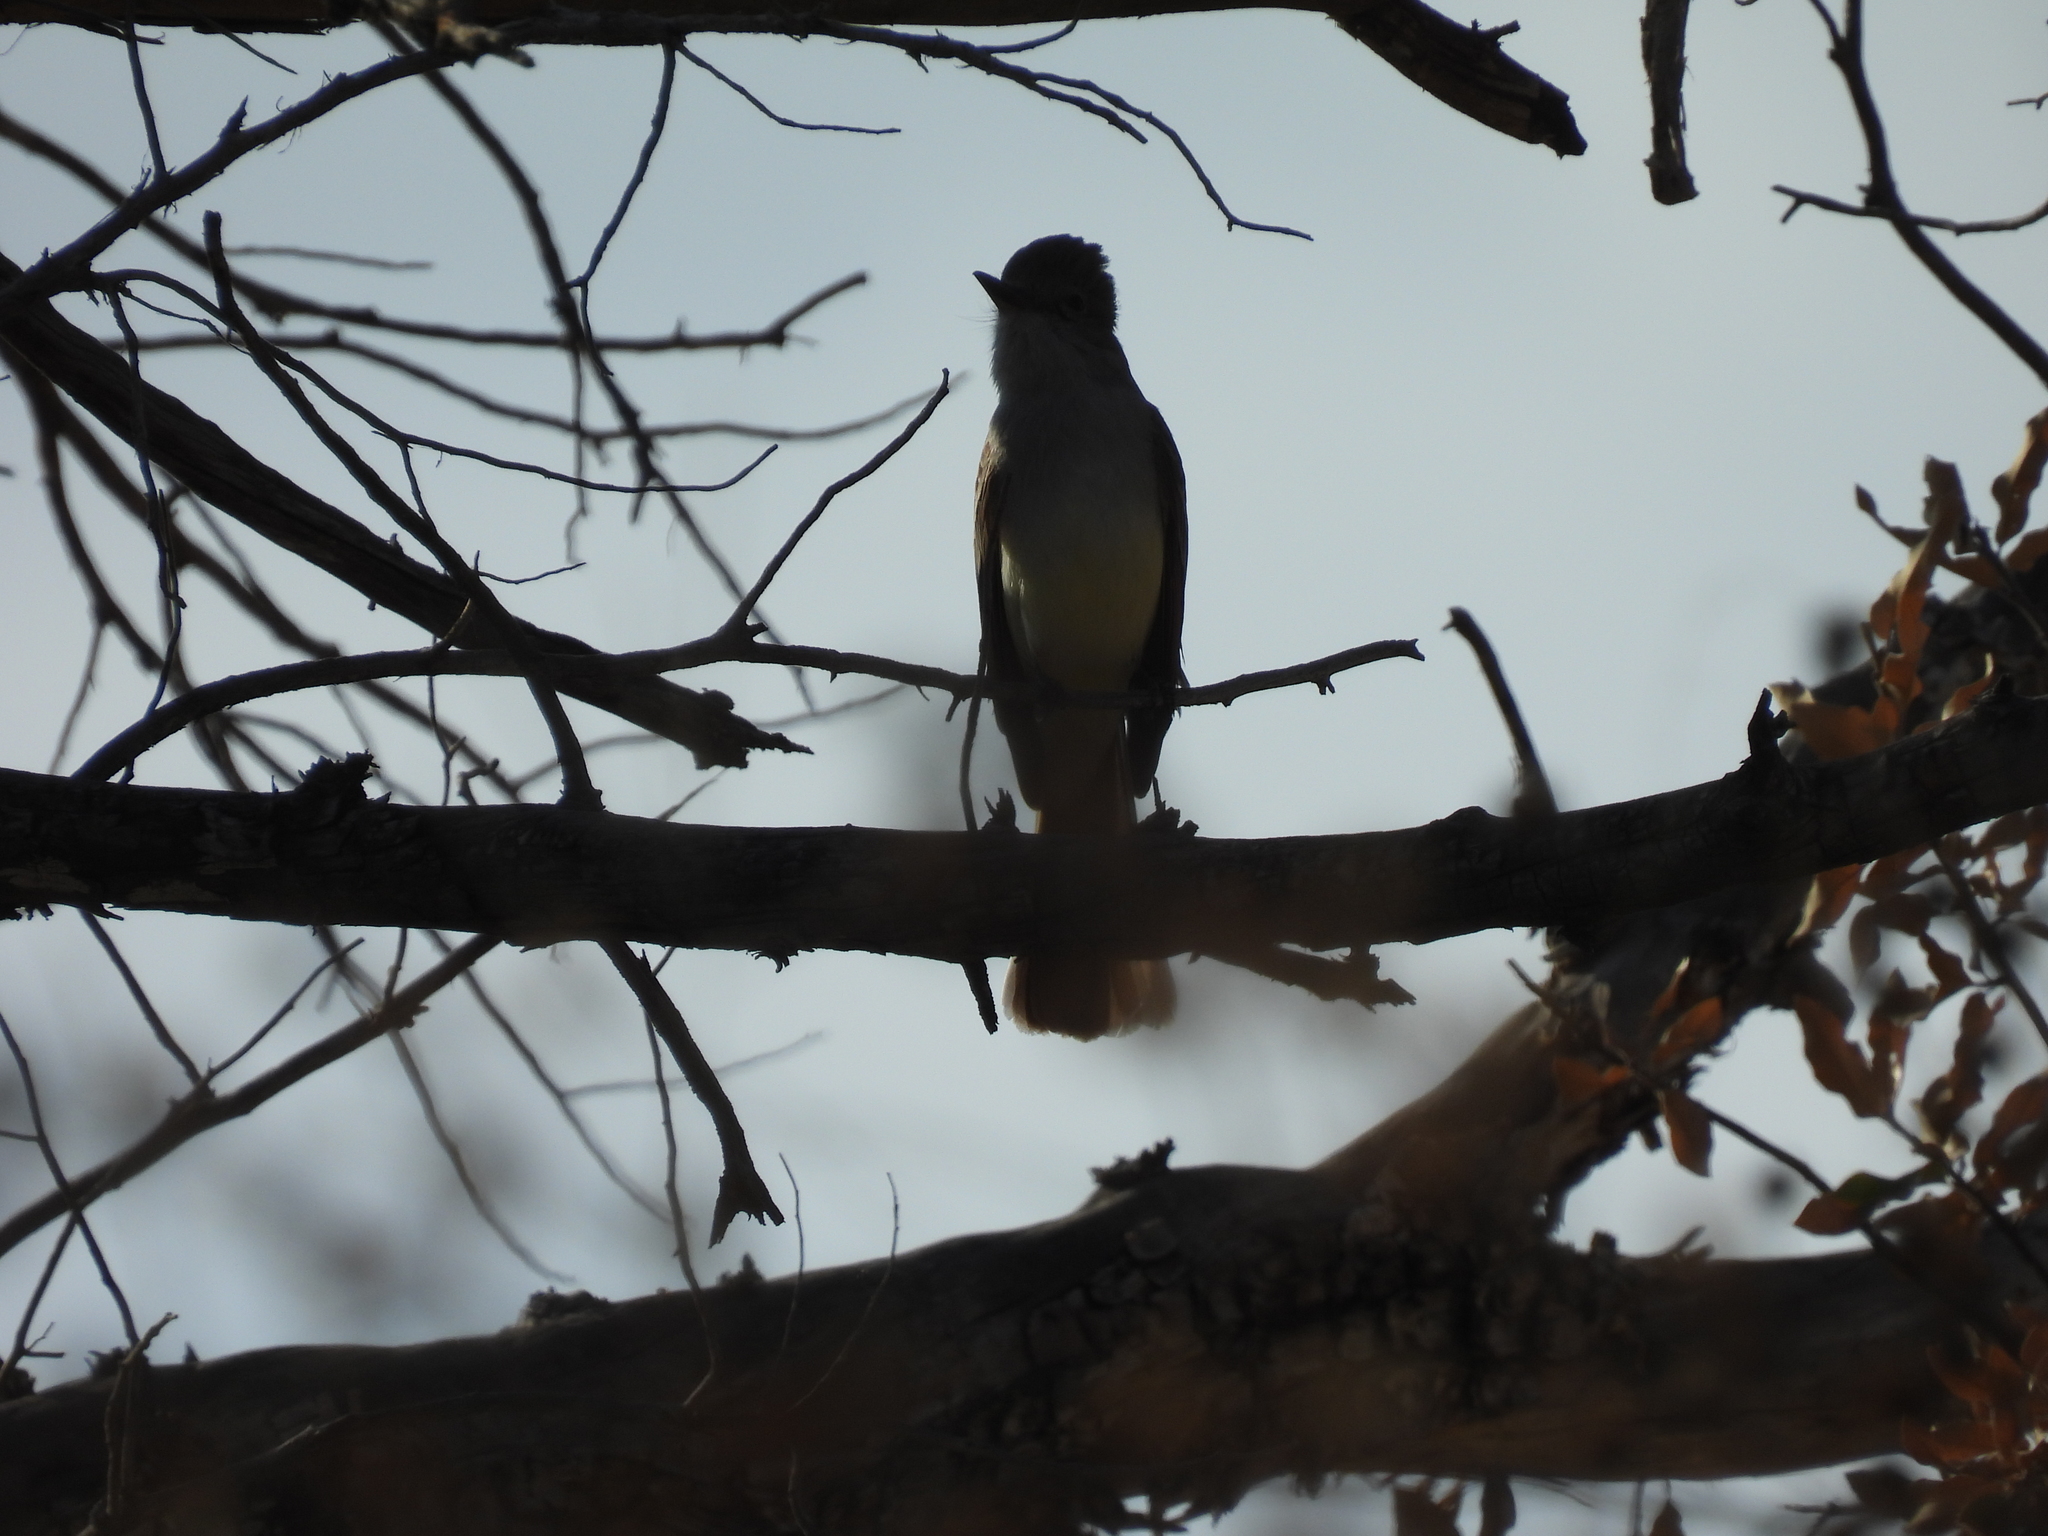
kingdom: Animalia
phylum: Chordata
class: Aves
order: Passeriformes
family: Tyrannidae
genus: Myiarchus
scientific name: Myiarchus cinerascens
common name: Ash-throated flycatcher
